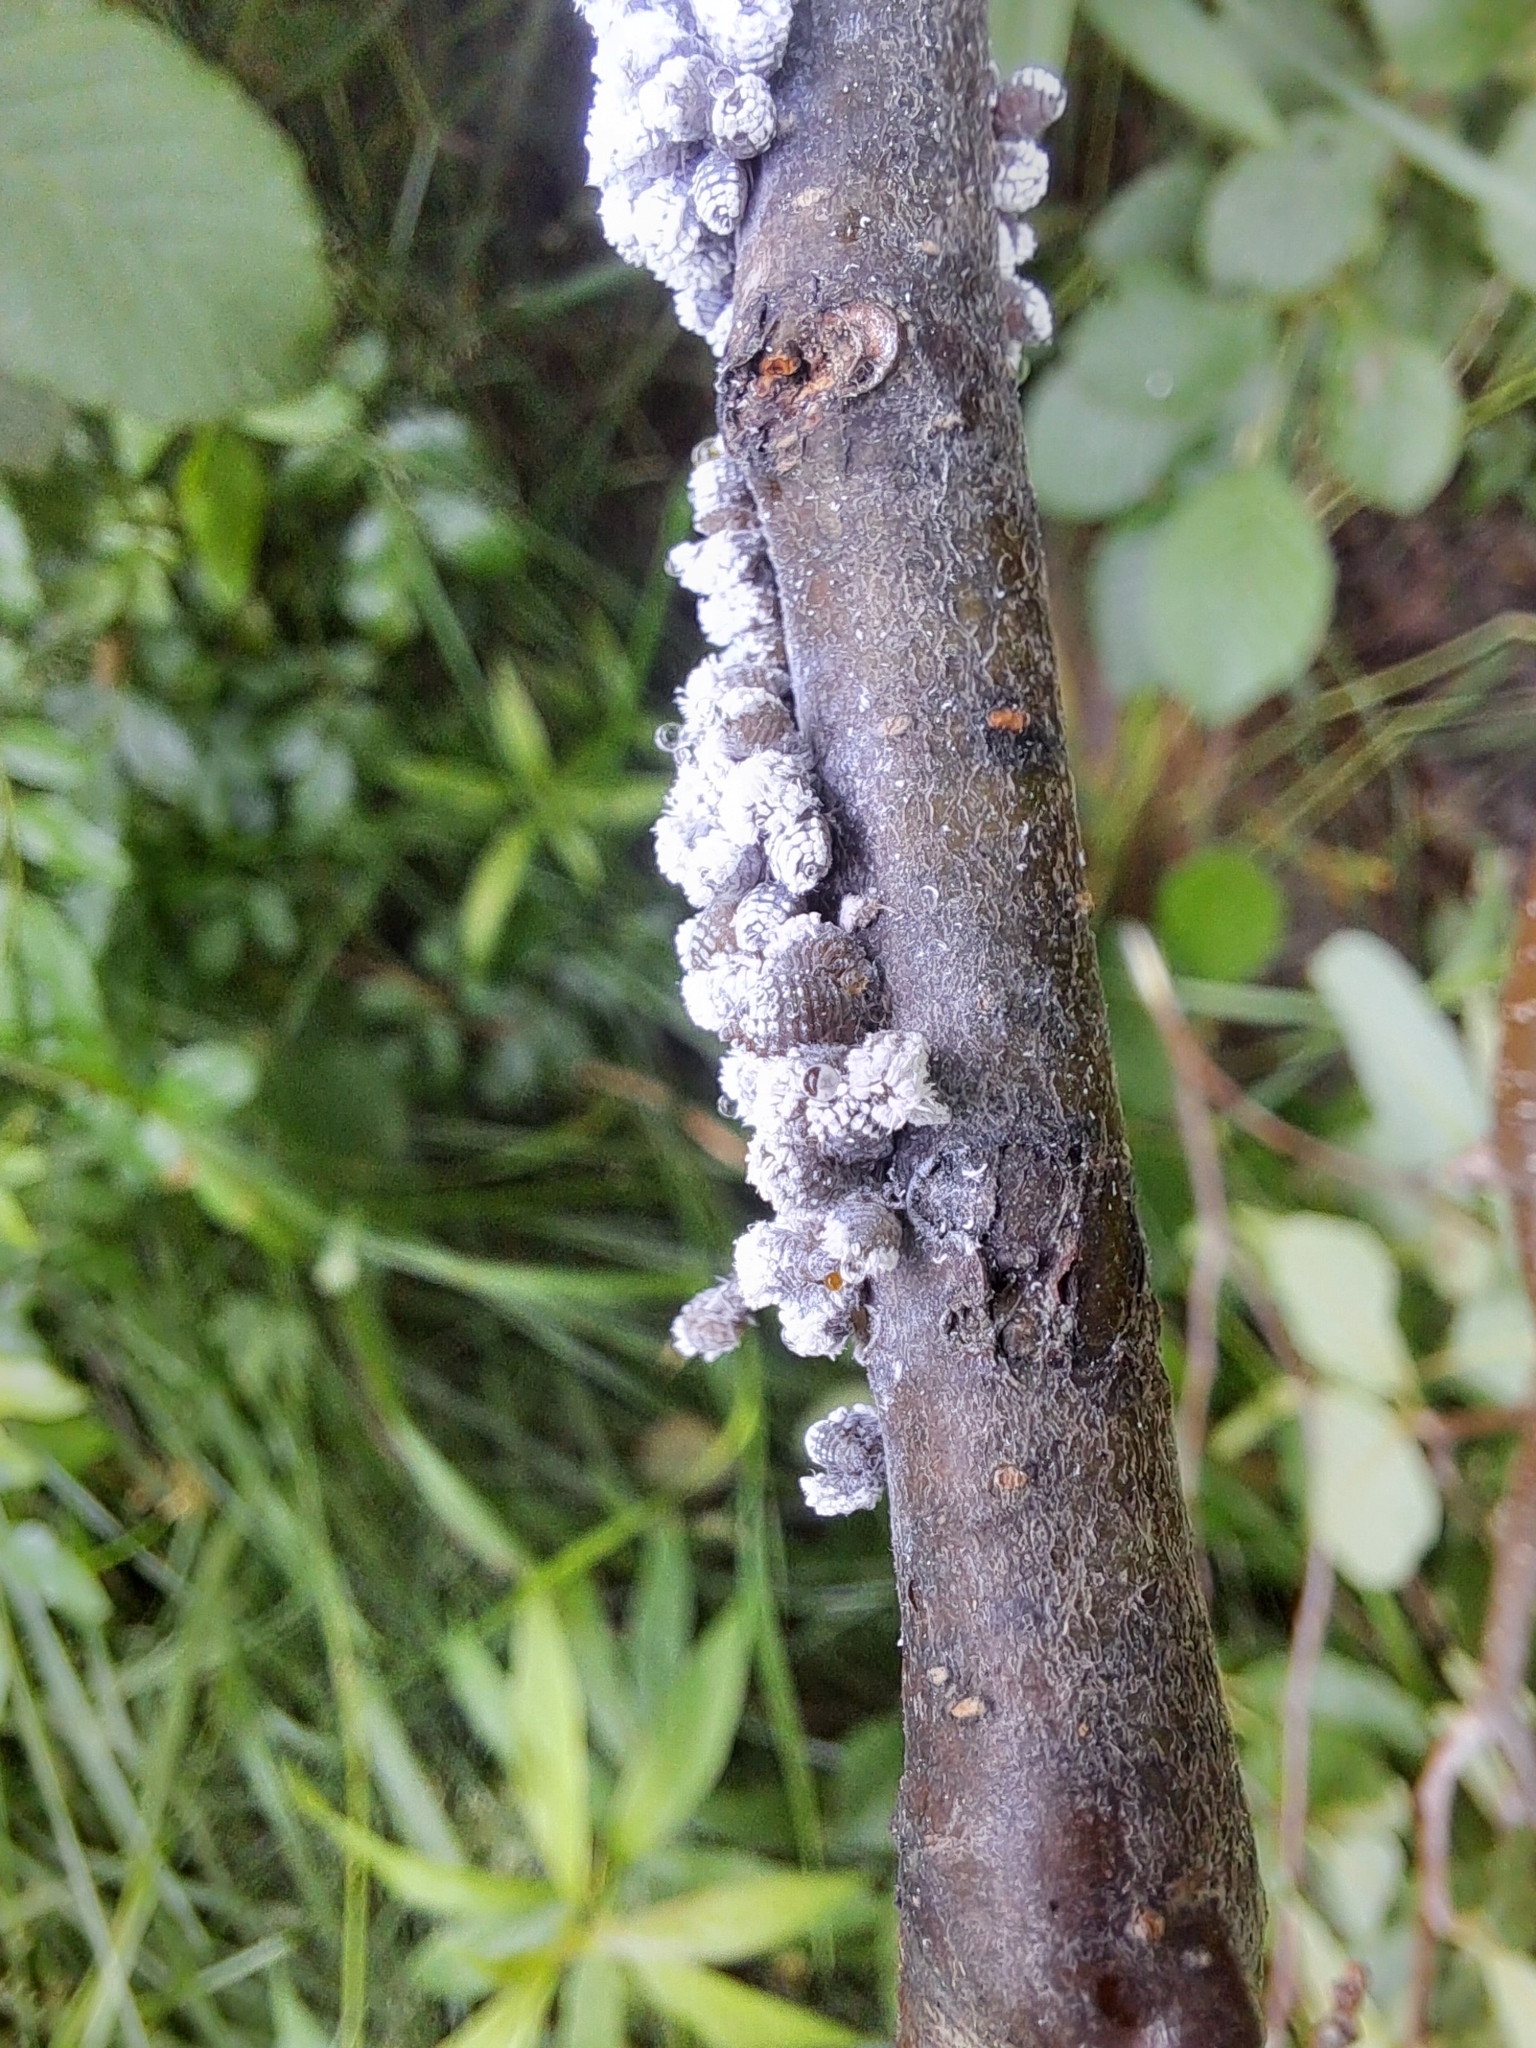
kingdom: Animalia
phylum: Arthropoda
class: Insecta
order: Hemiptera
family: Aphididae
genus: Prociphilus
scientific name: Prociphilus tessellatus
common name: Woolly alder aphid
